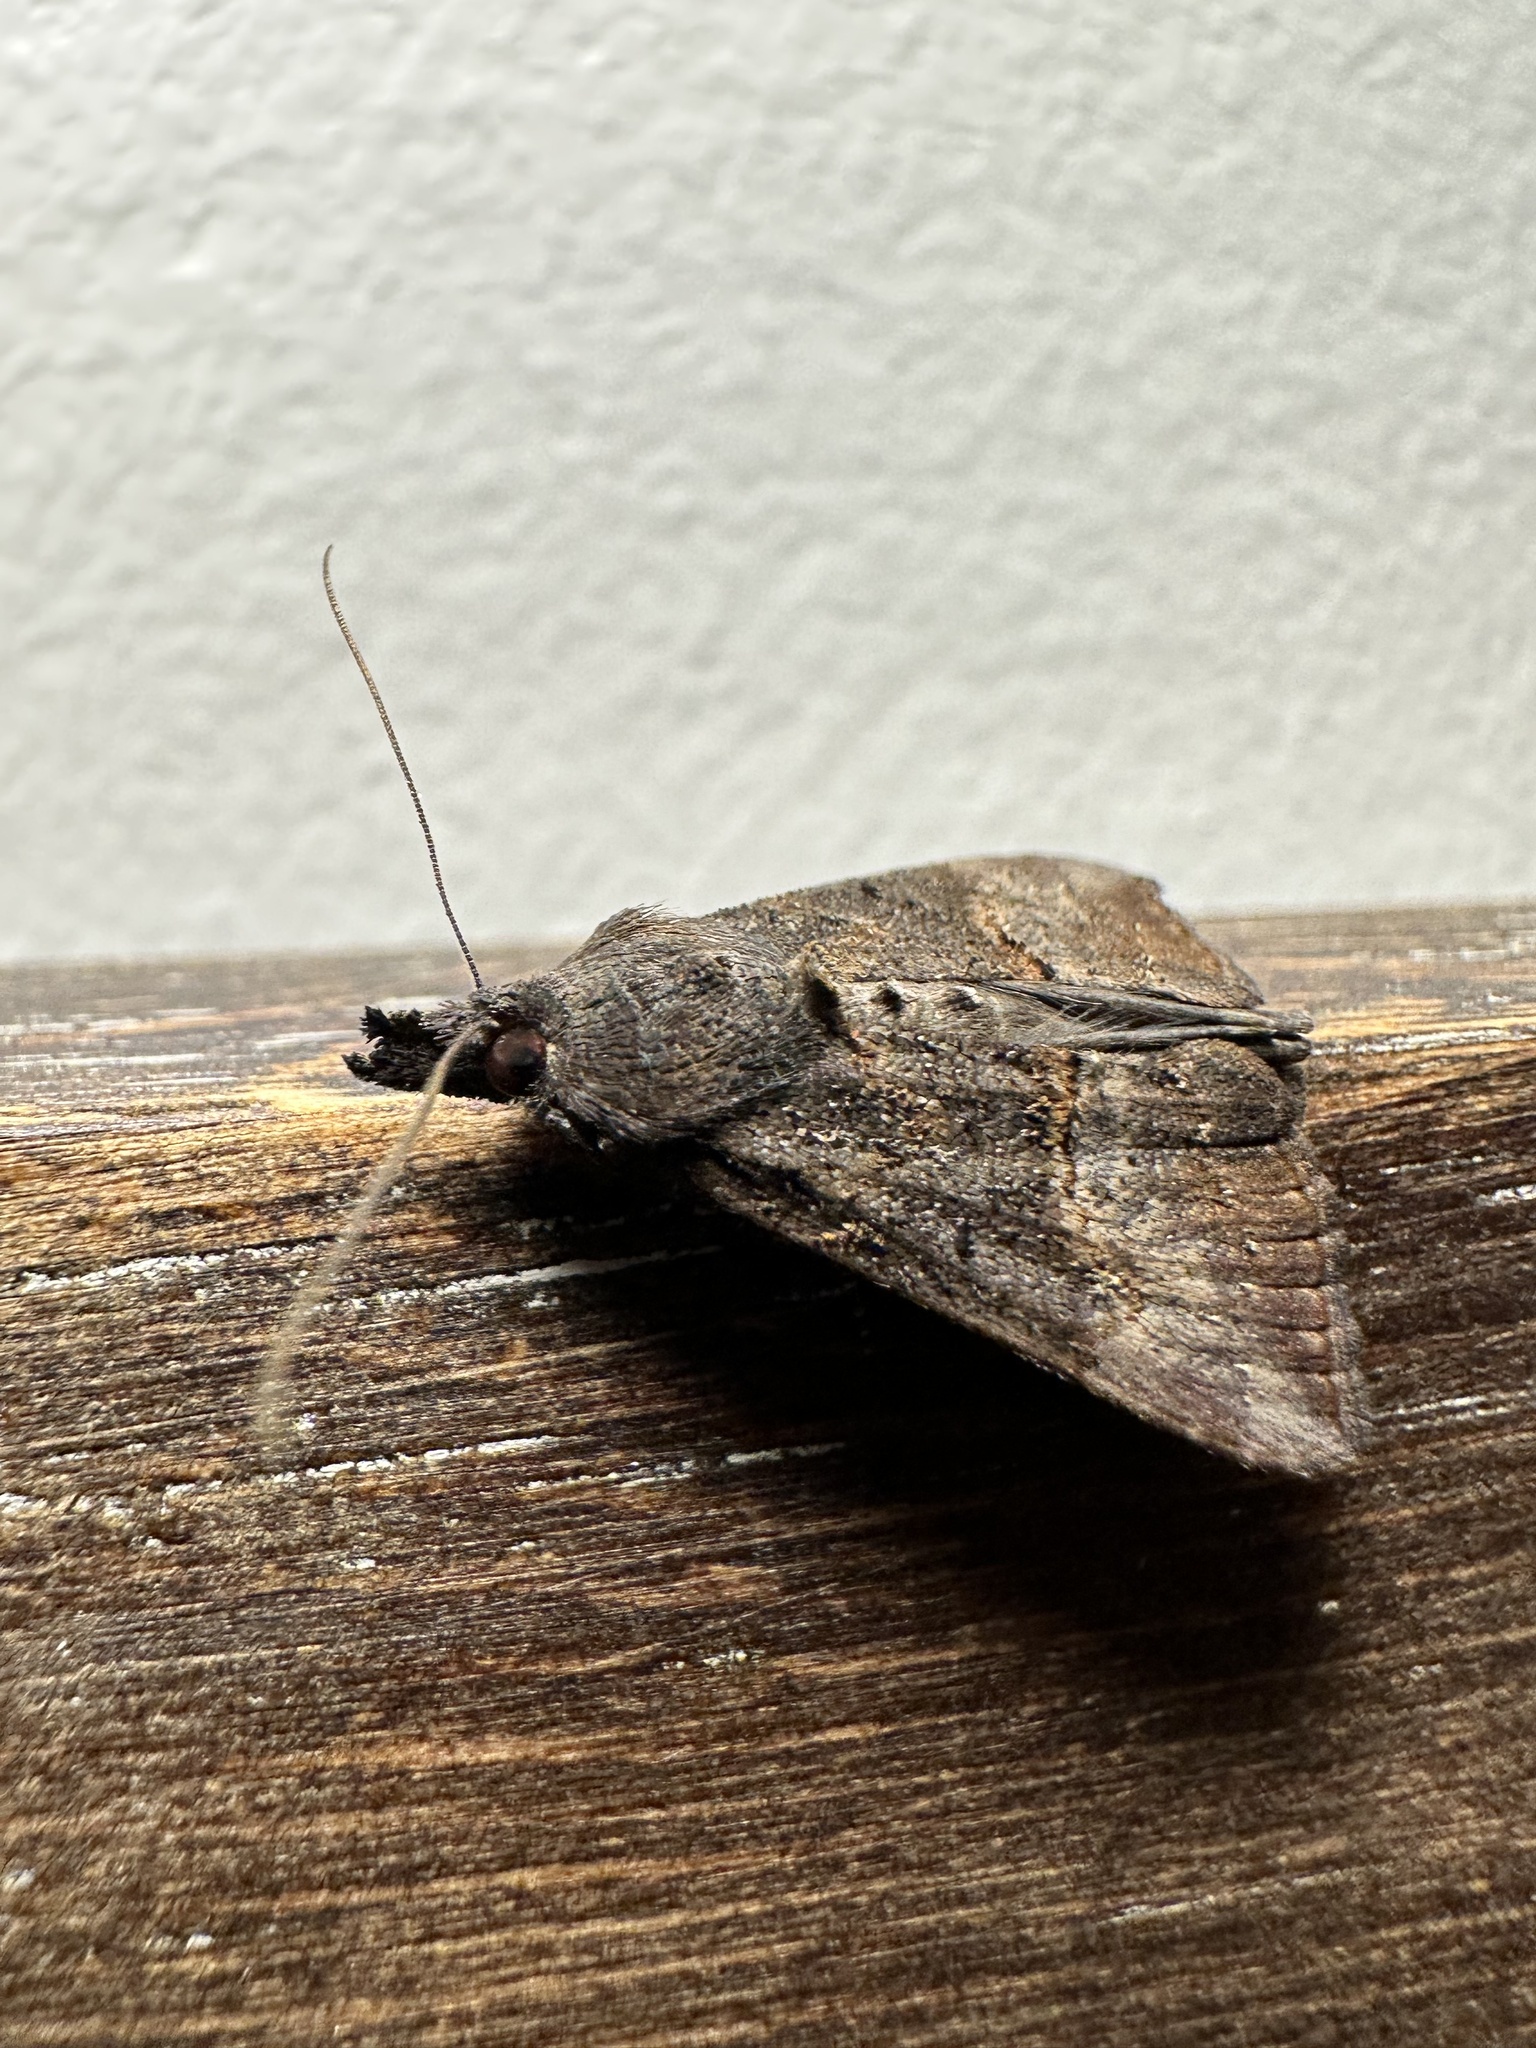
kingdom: Animalia
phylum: Arthropoda
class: Insecta
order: Lepidoptera
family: Erebidae
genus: Hypena
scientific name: Hypena scabra
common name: Green cloverworm
